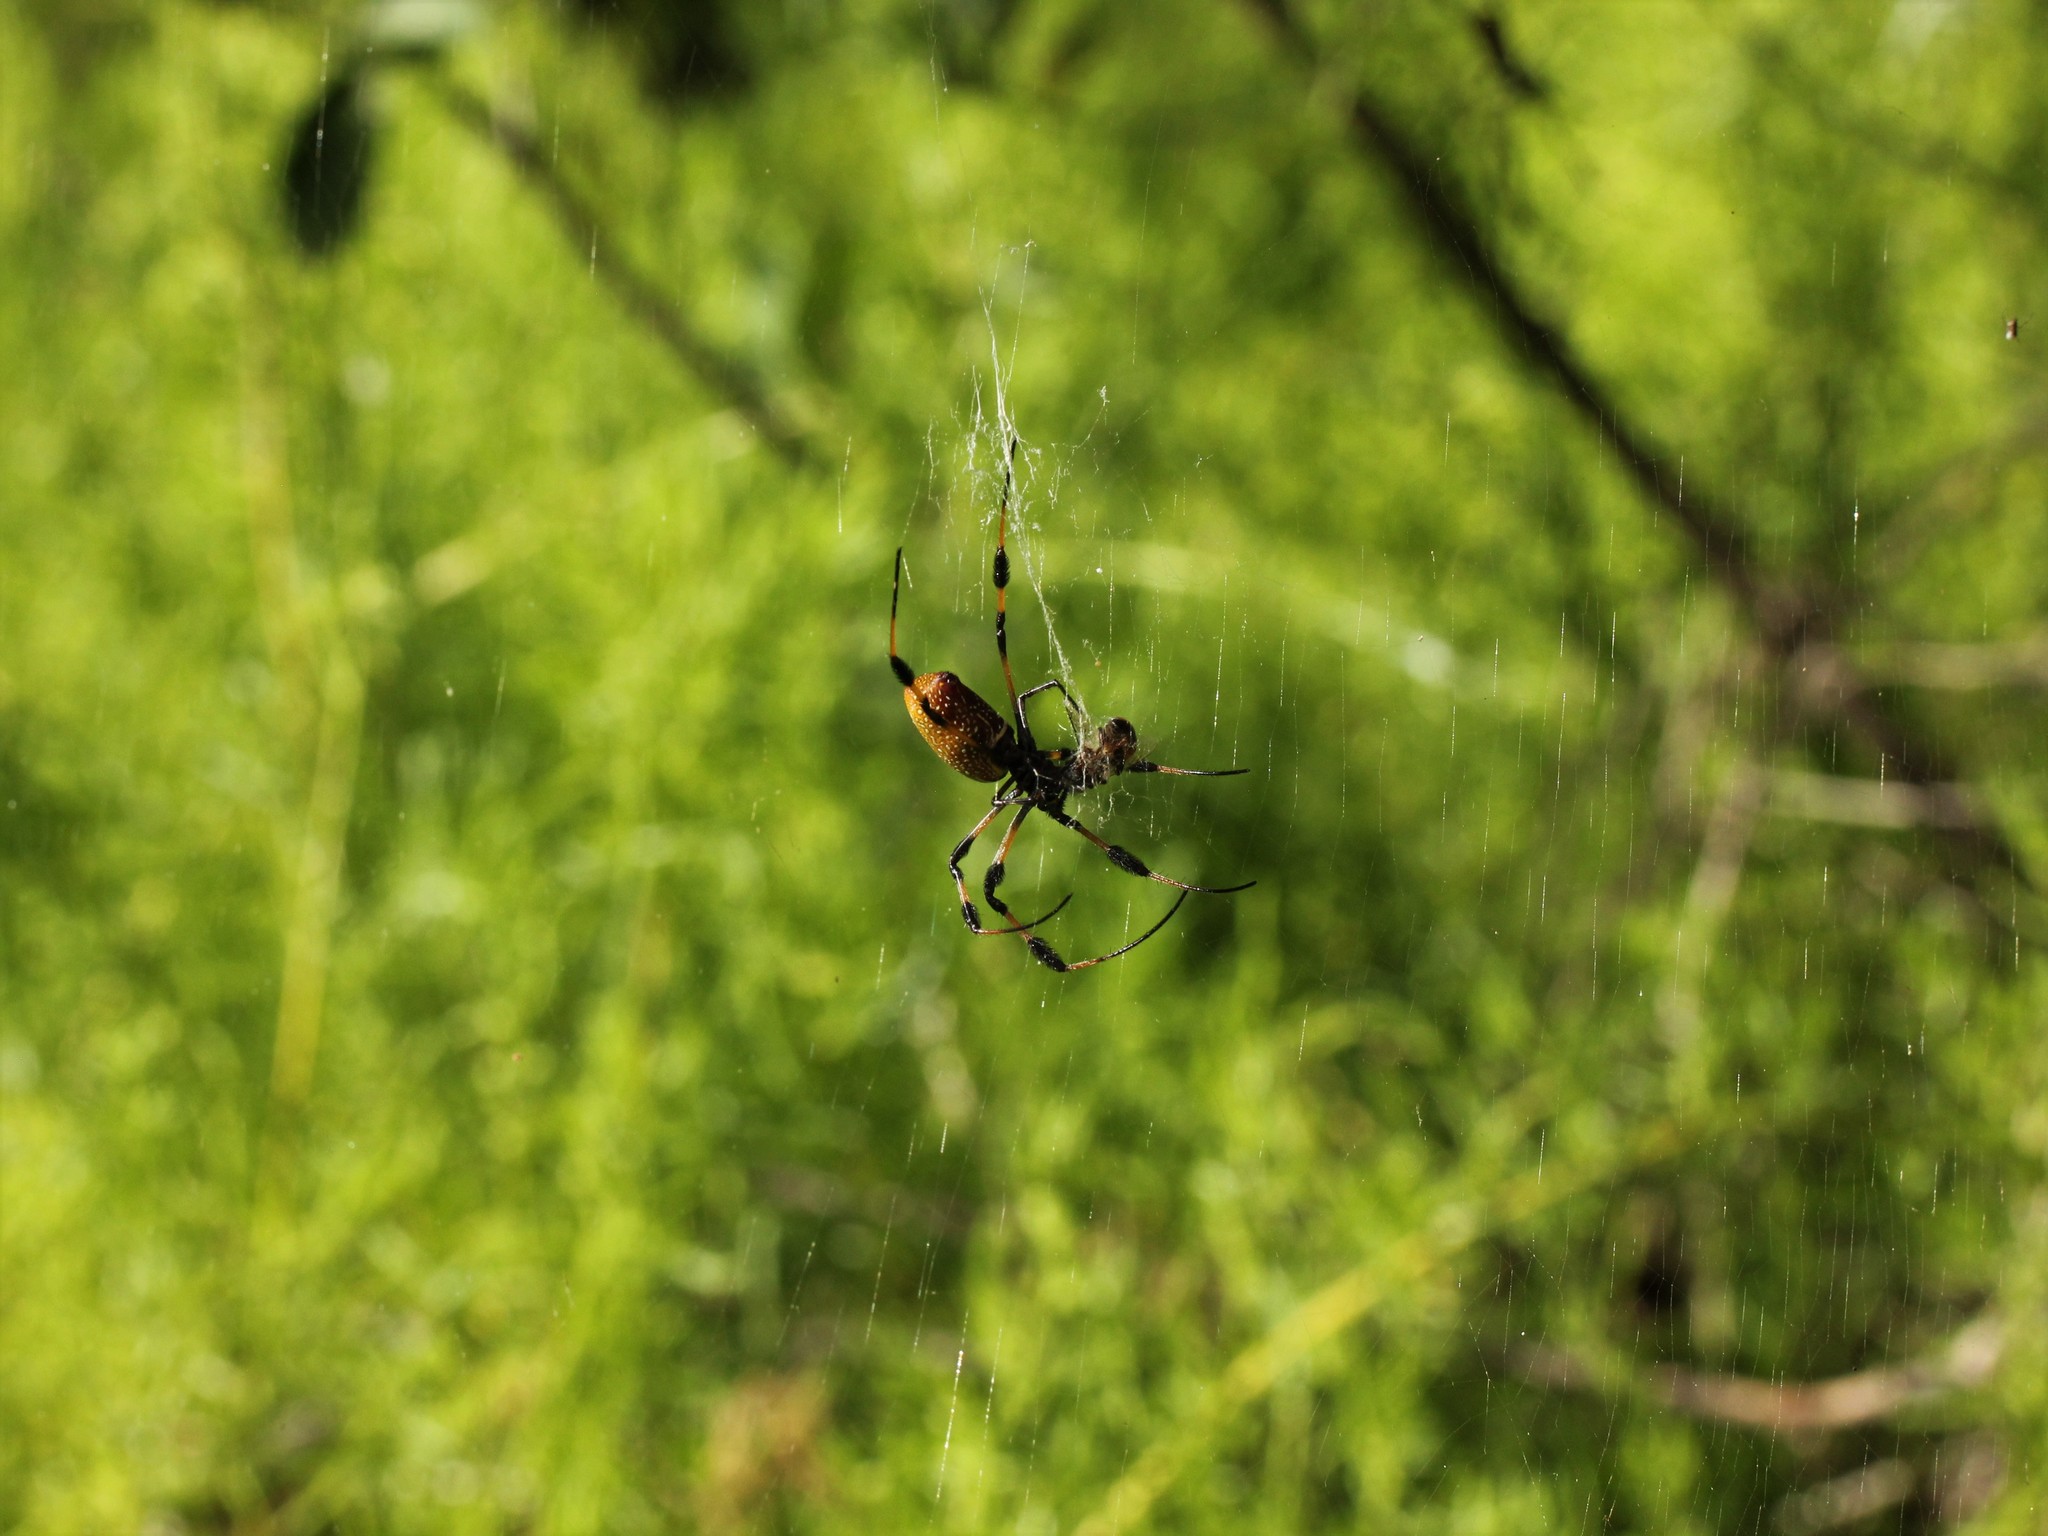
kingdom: Animalia
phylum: Arthropoda
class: Arachnida
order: Araneae
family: Araneidae
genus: Trichonephila
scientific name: Trichonephila clavipes
